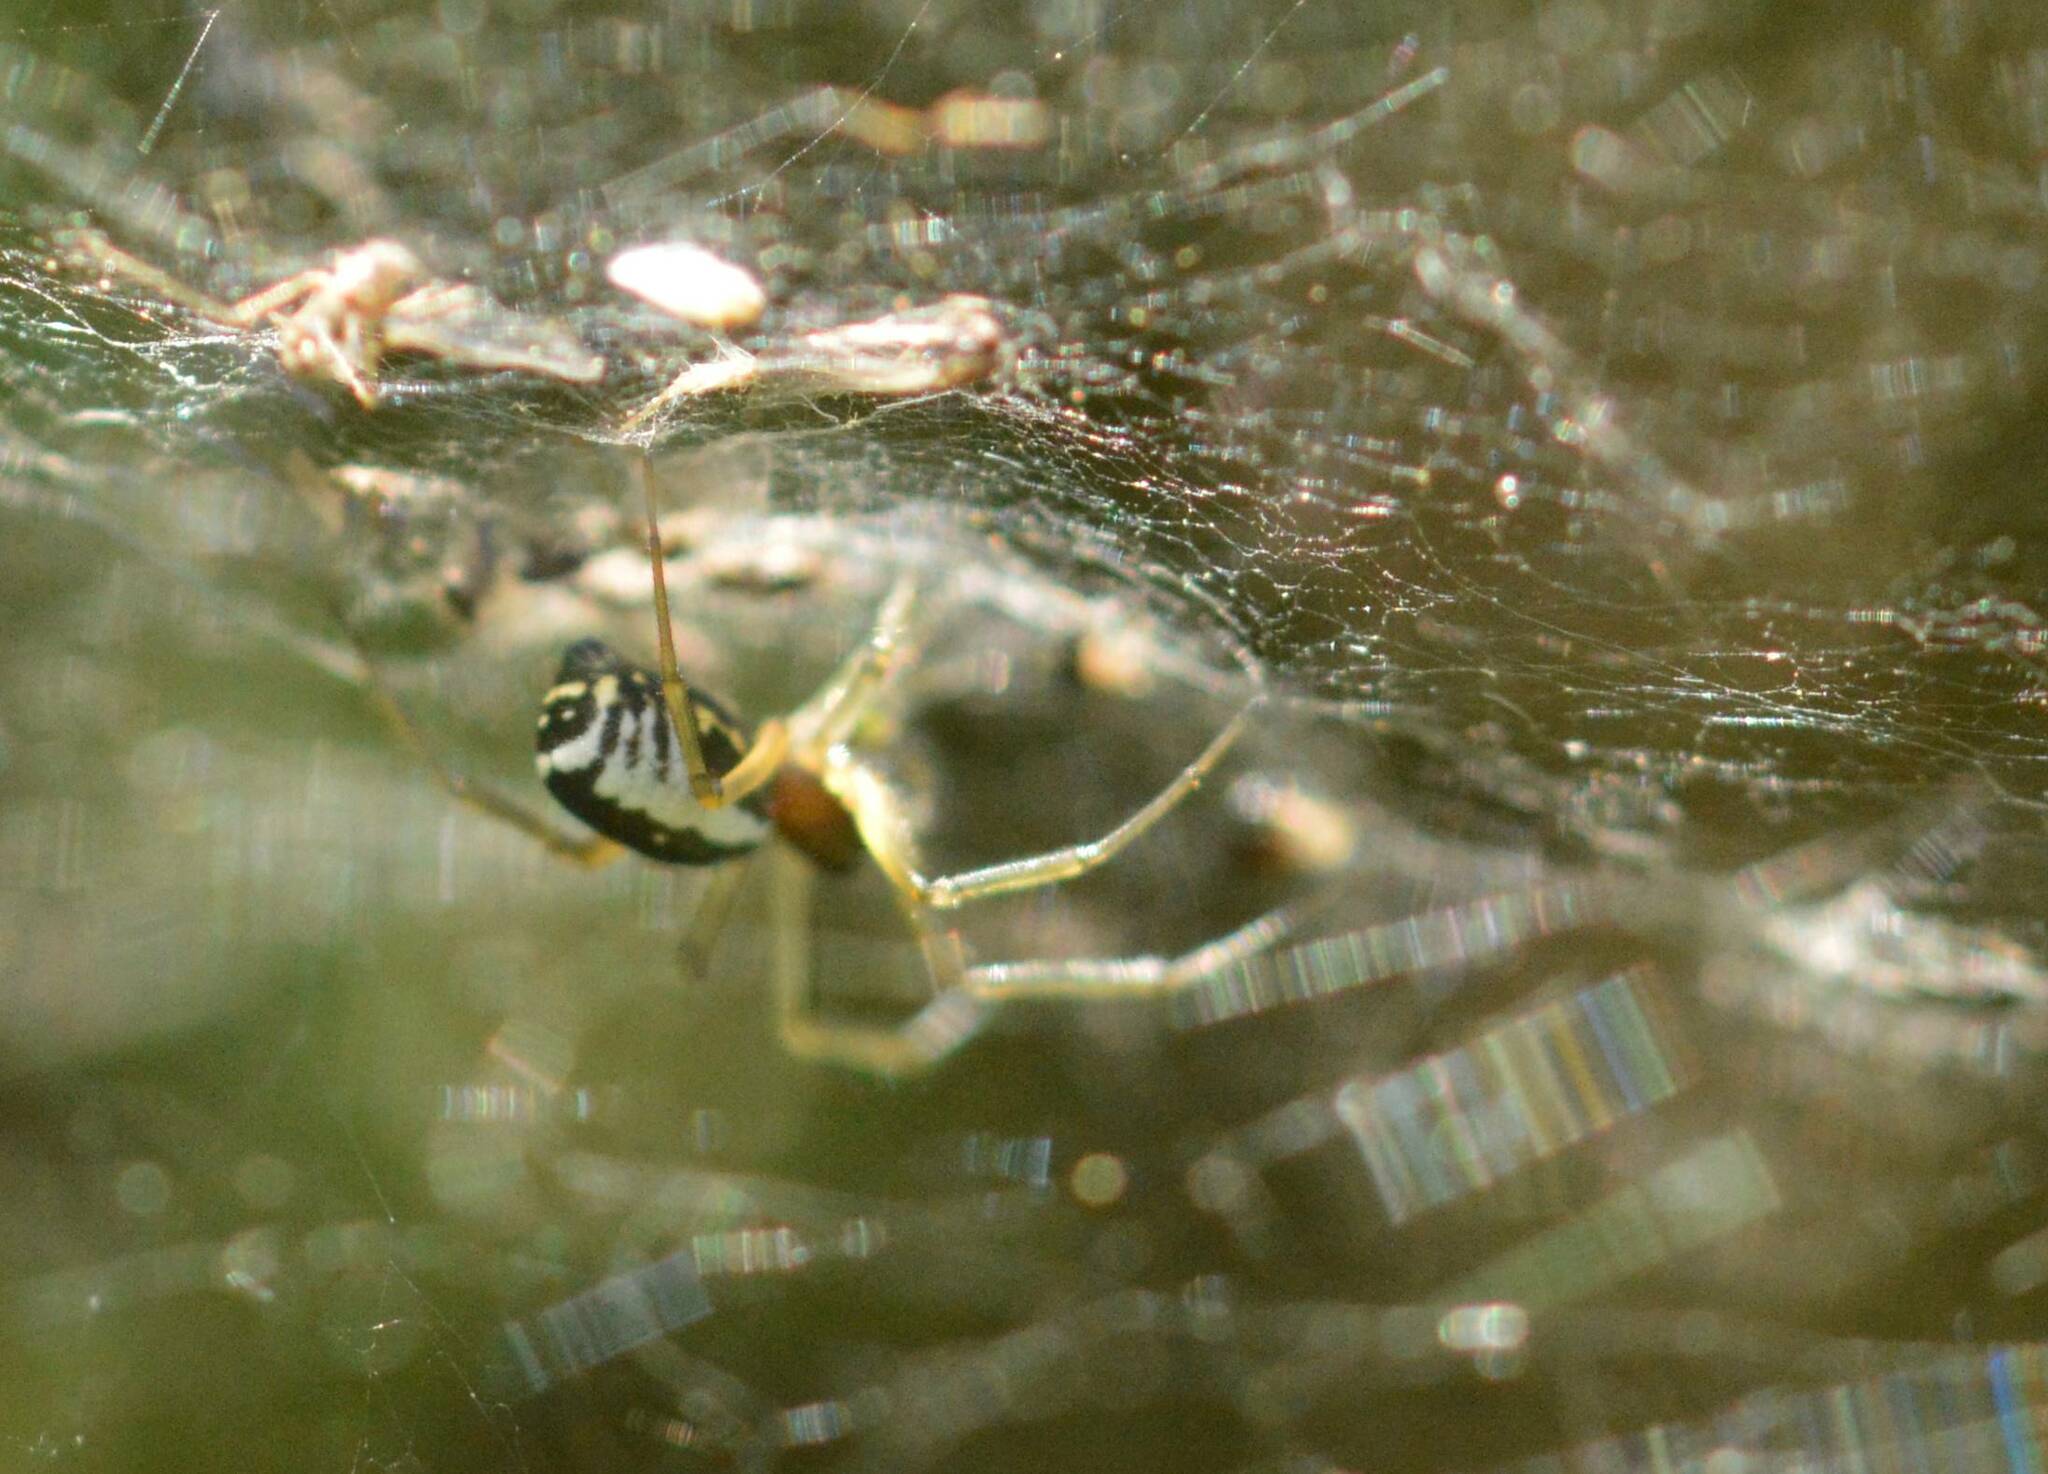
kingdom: Animalia
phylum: Arthropoda
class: Arachnida
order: Araneae
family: Linyphiidae
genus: Frontinellina
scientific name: Frontinellina frutetorum
